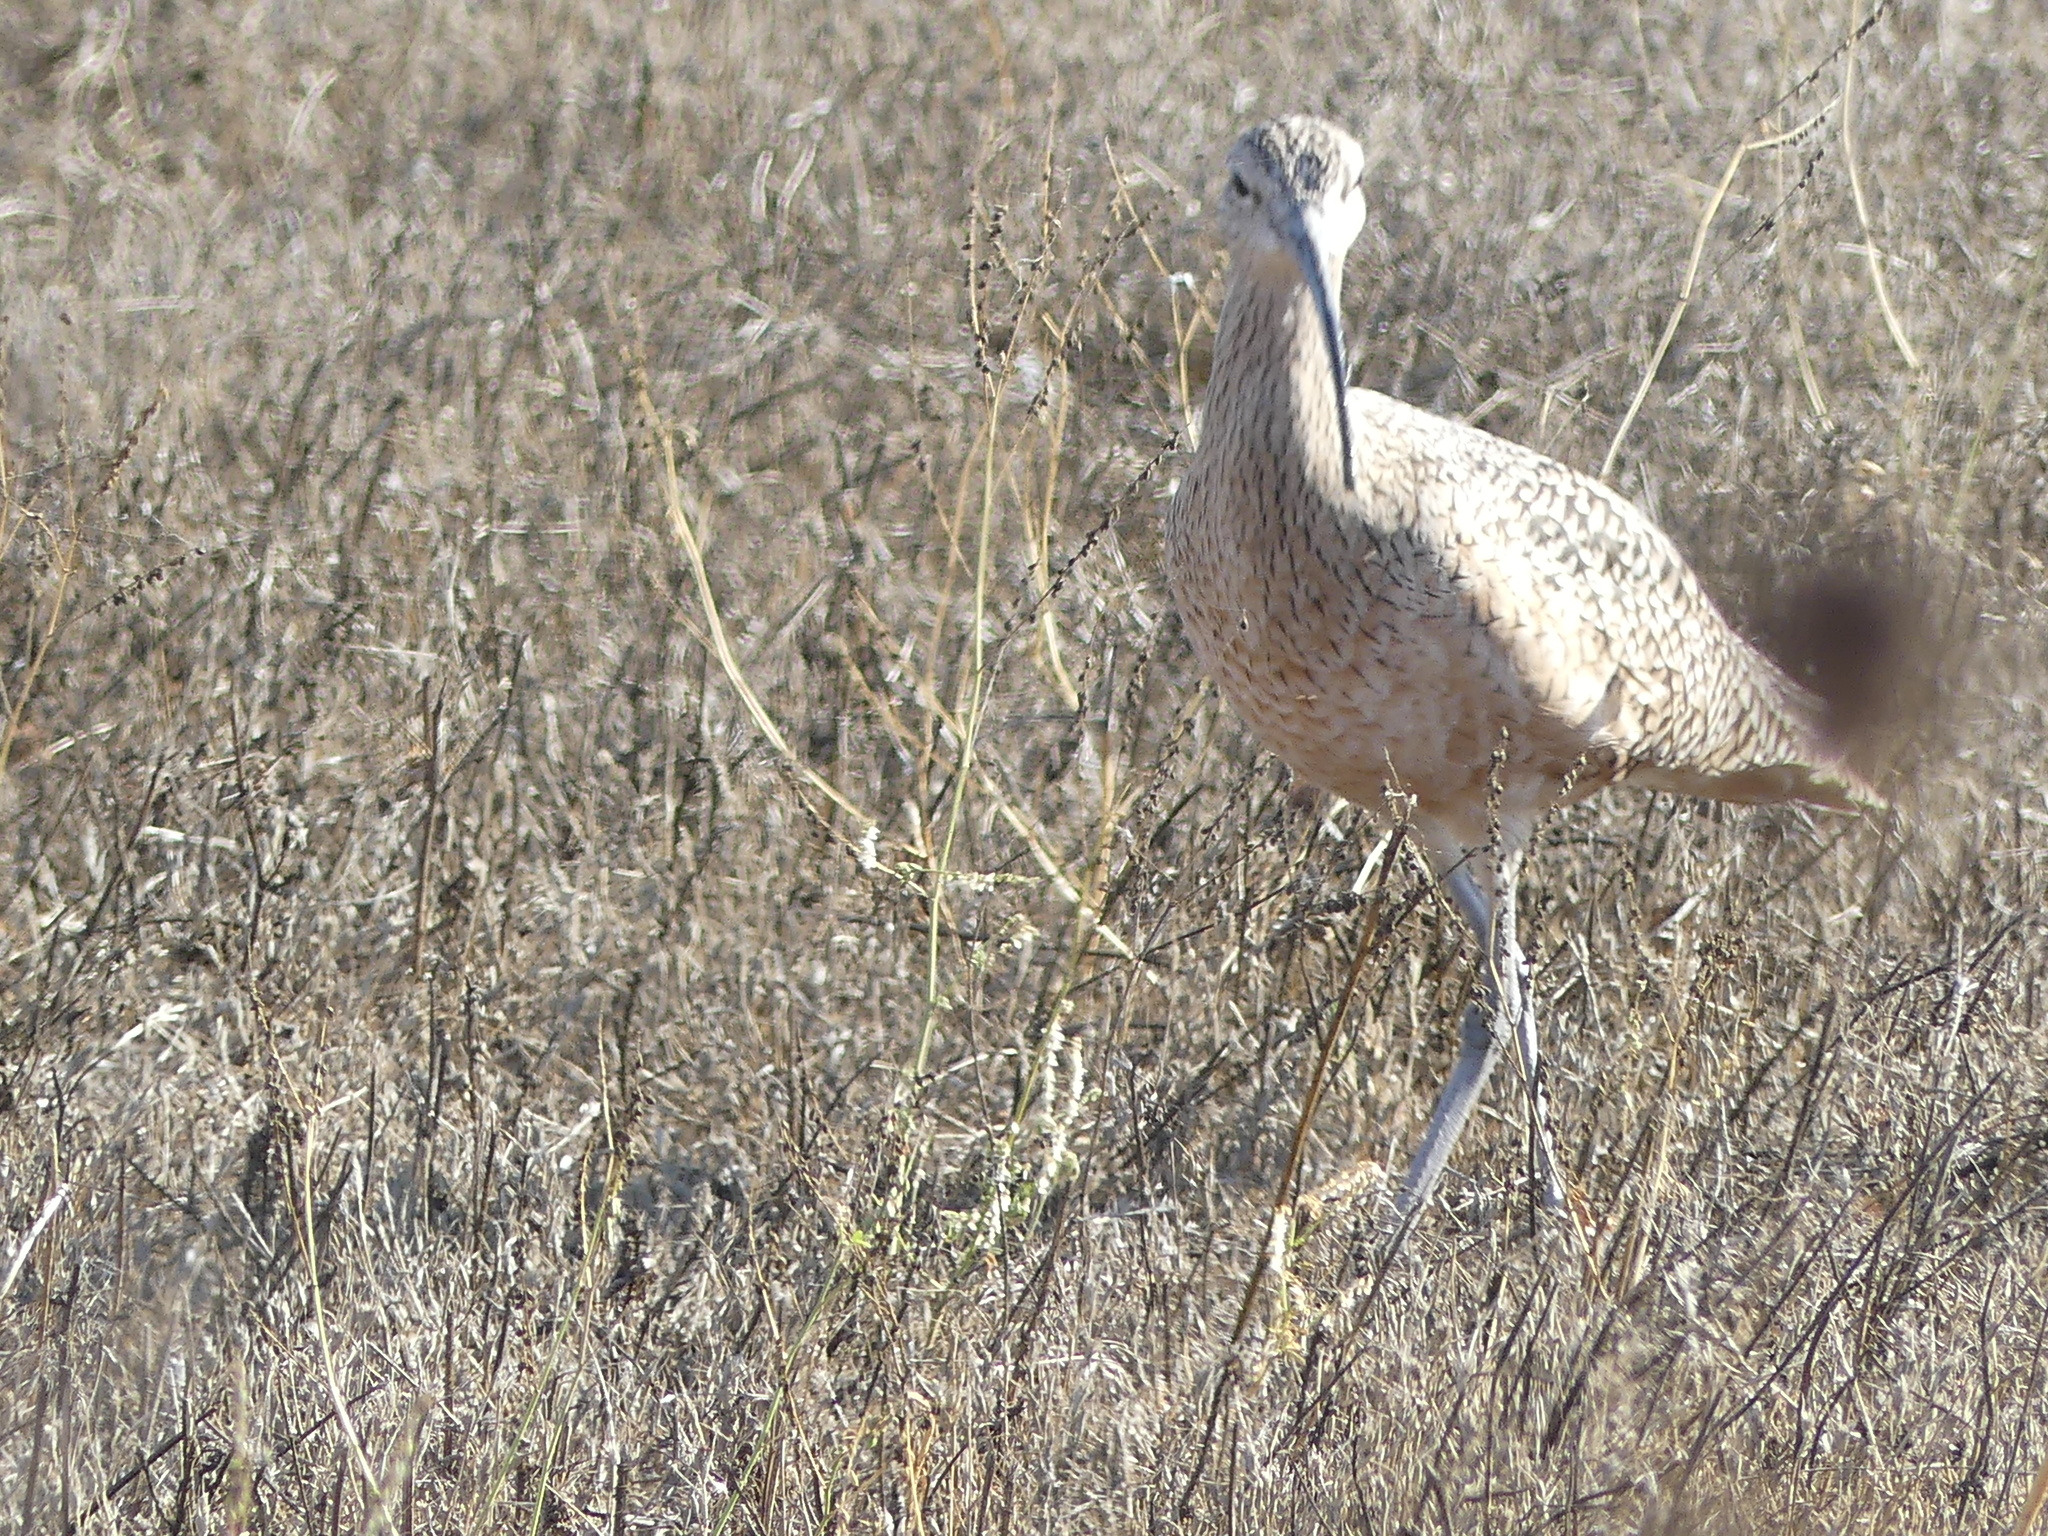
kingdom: Animalia
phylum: Chordata
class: Aves
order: Charadriiformes
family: Scolopacidae
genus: Numenius
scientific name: Numenius americanus
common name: Long-billed curlew
